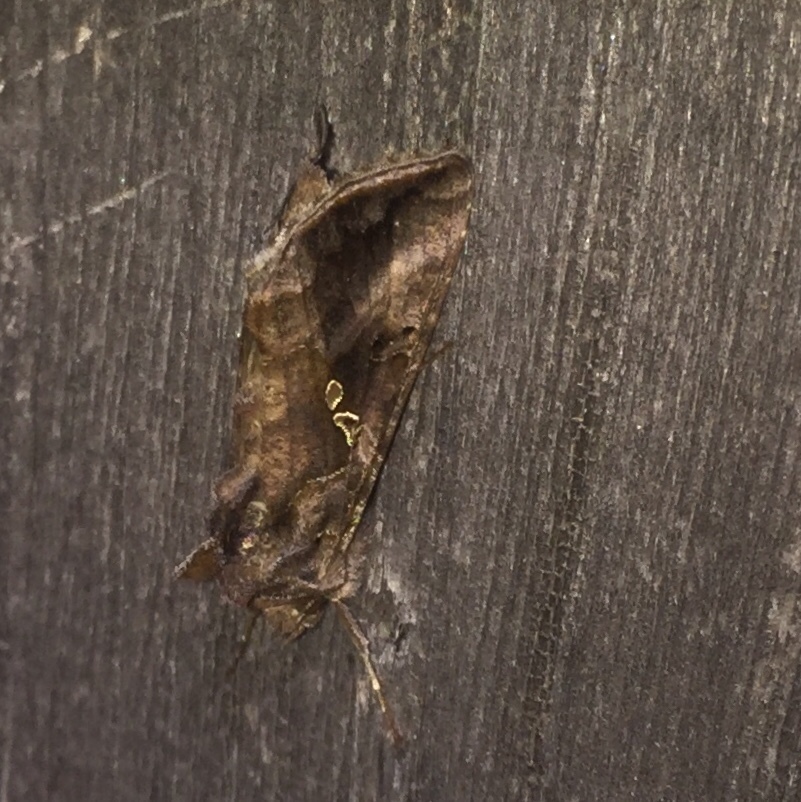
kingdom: Animalia
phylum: Arthropoda
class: Insecta
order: Lepidoptera
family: Noctuidae
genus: Autographa
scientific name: Autographa precationis
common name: Common looper moth
